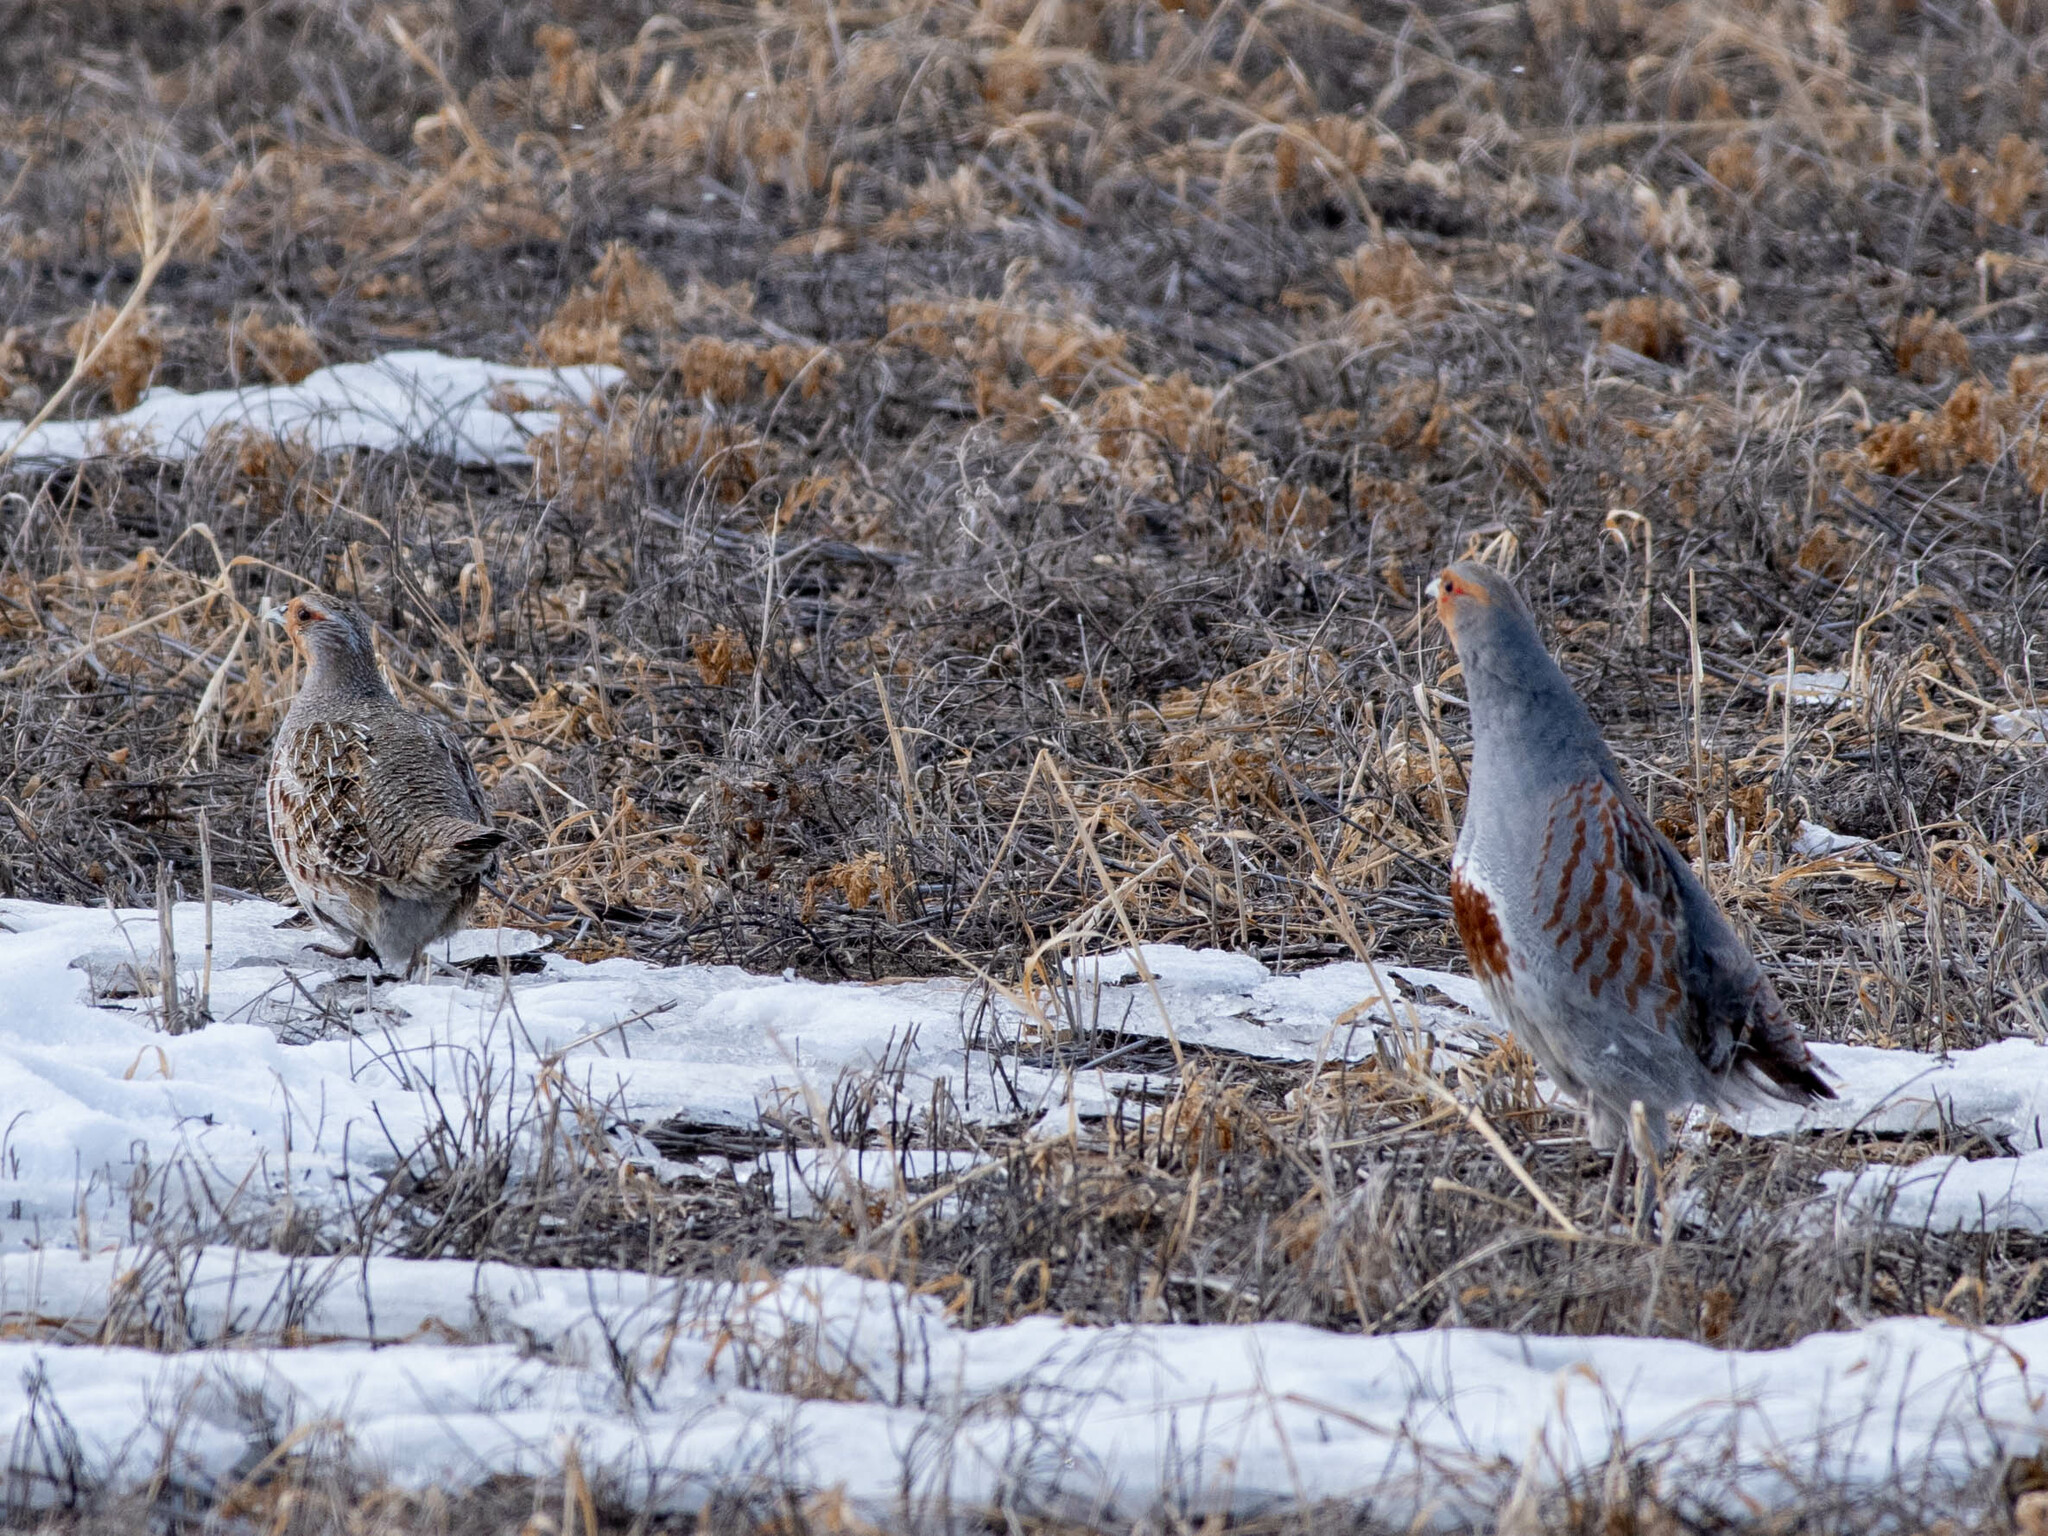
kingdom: Animalia
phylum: Chordata
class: Aves
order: Galliformes
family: Phasianidae
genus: Perdix
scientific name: Perdix perdix
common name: Grey partridge
